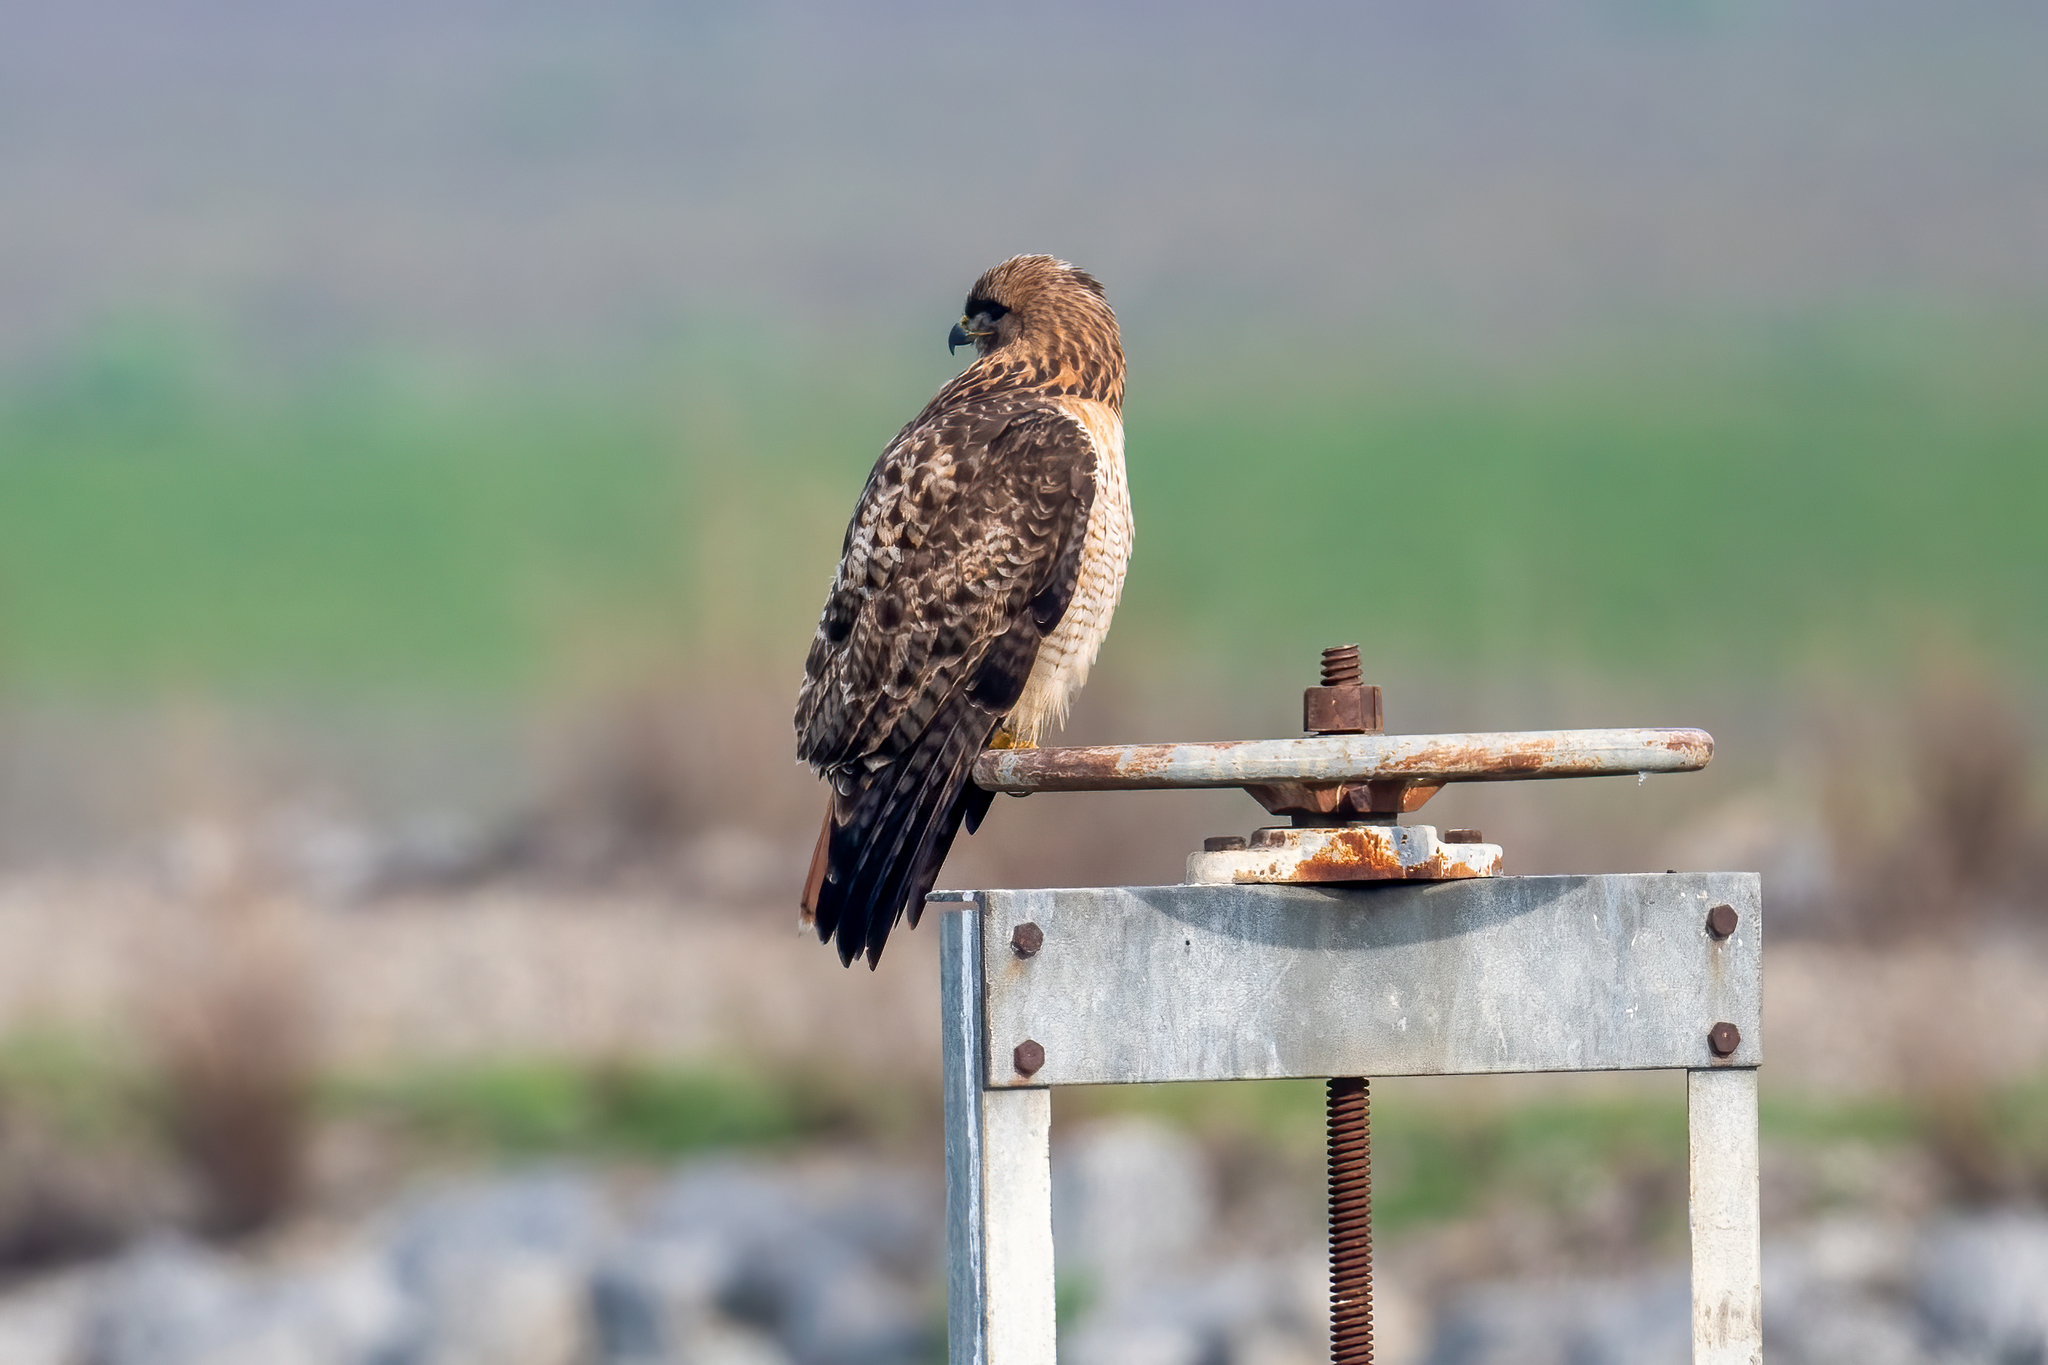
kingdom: Animalia
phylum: Chordata
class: Aves
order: Accipitriformes
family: Accipitridae
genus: Buteo
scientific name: Buteo jamaicensis
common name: Red-tailed hawk
